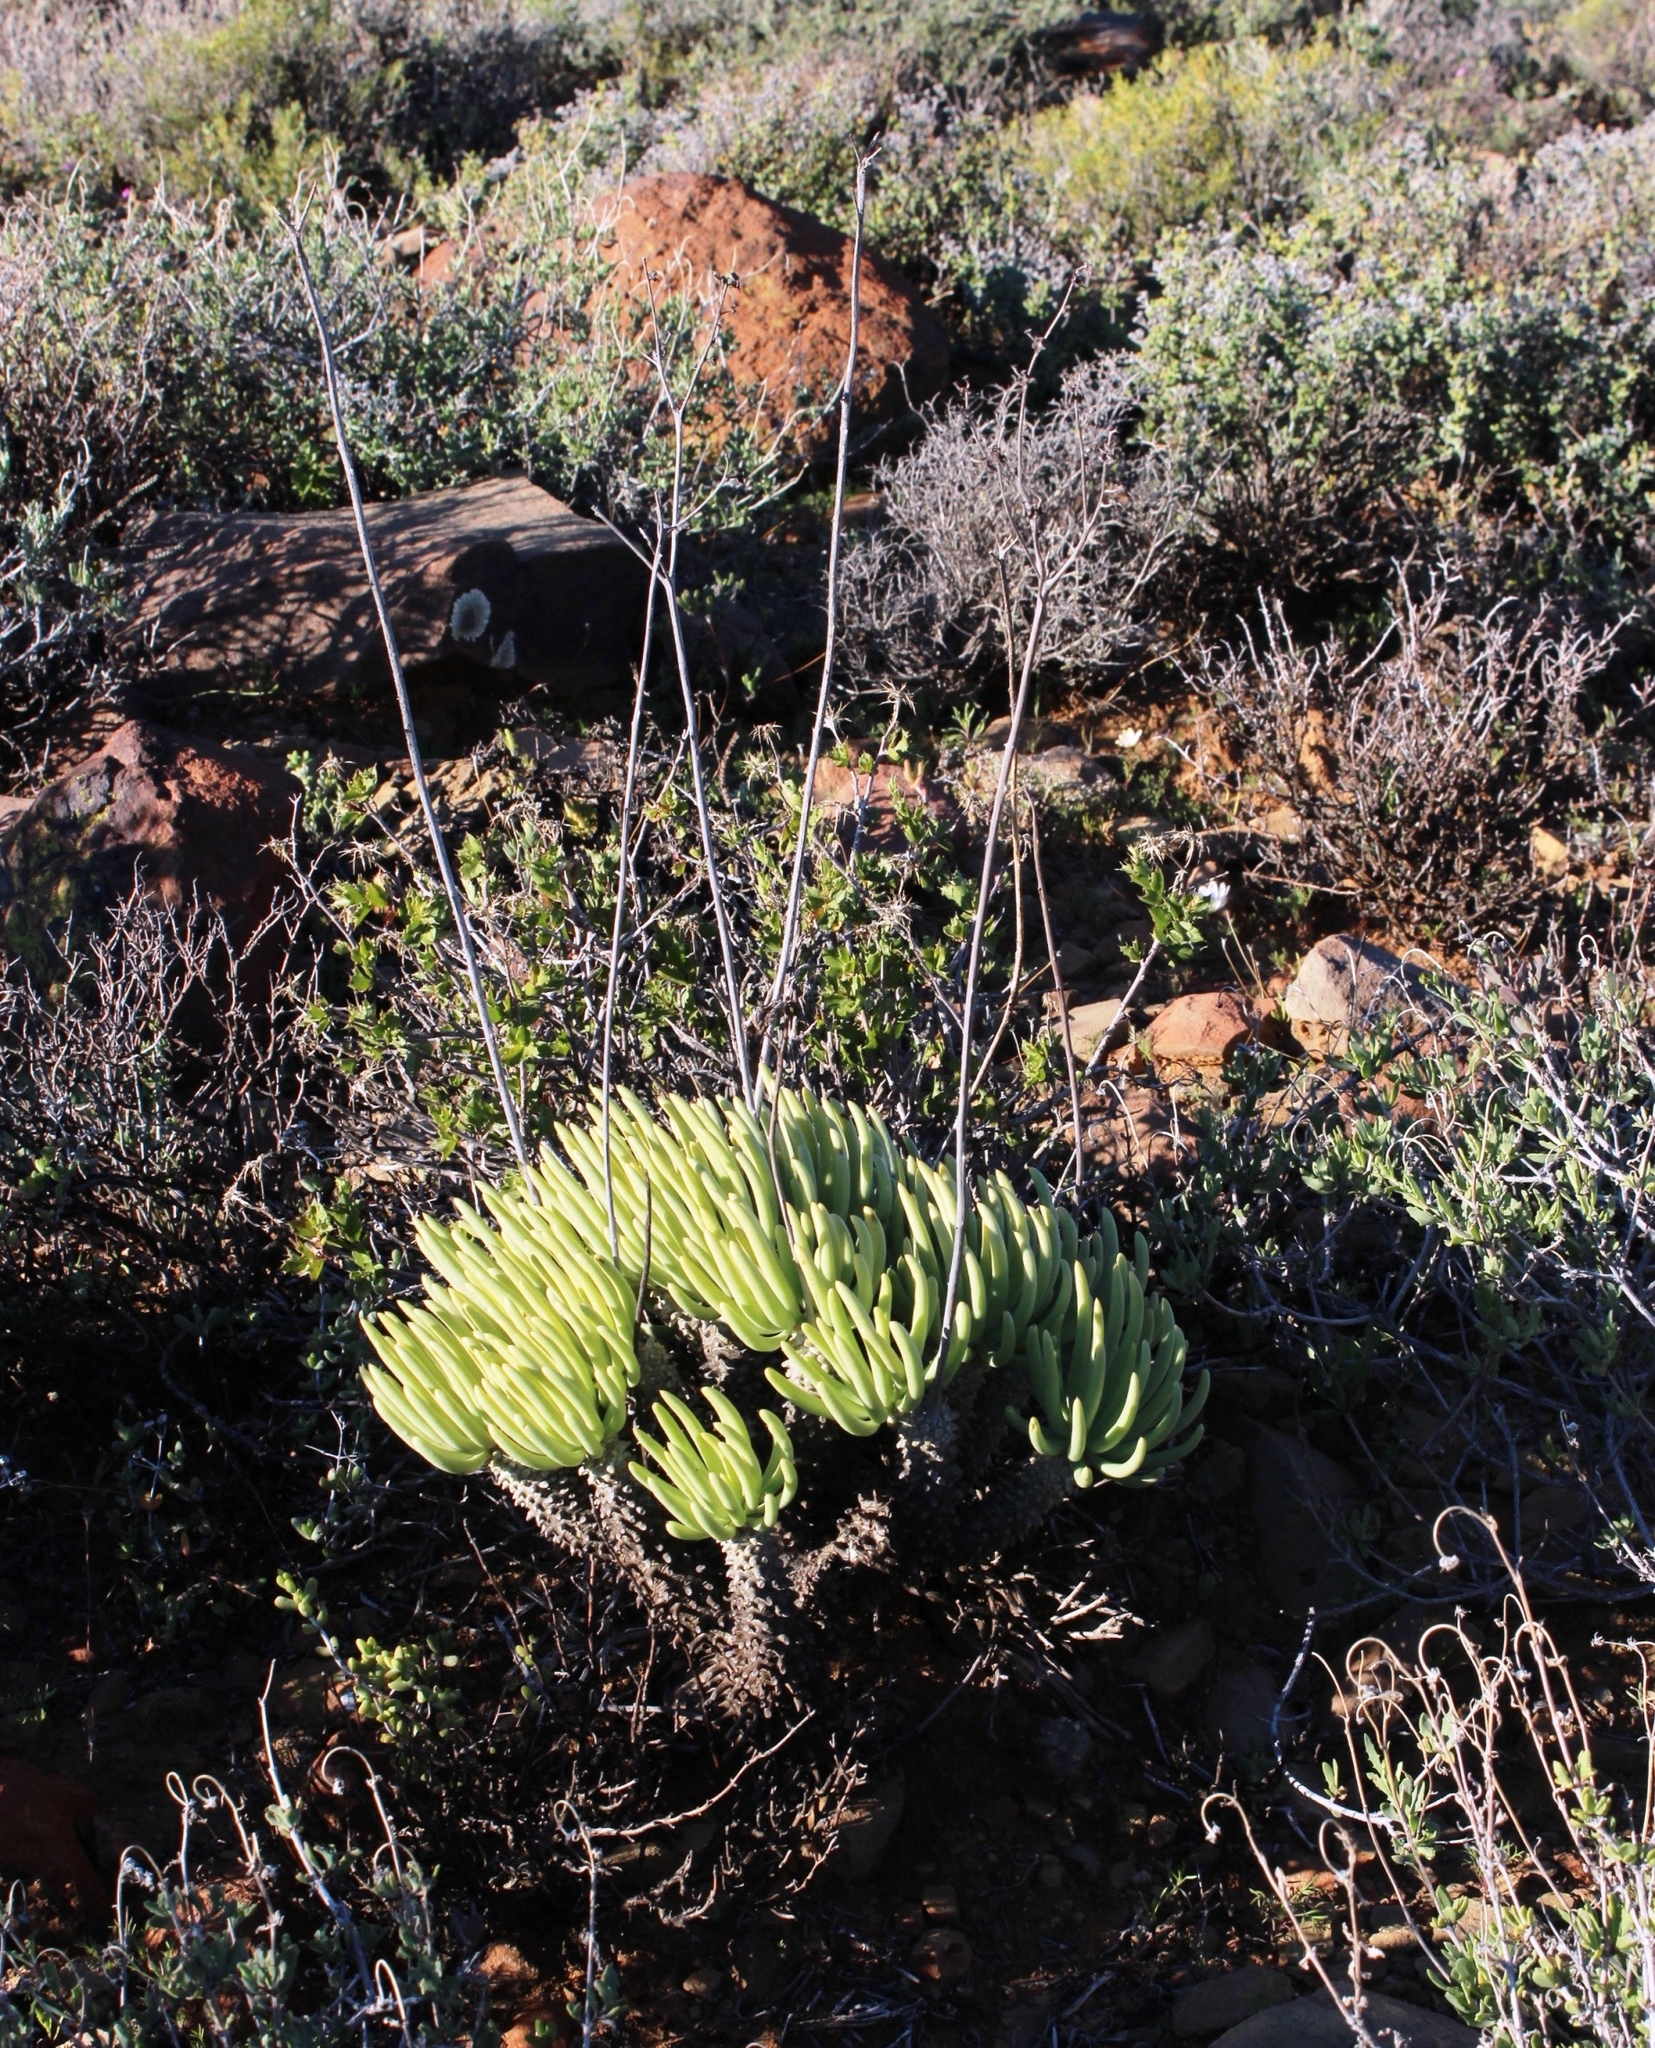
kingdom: Plantae
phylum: Tracheophyta
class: Magnoliopsida
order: Saxifragales
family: Crassulaceae
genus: Tylecodon
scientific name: Tylecodon wallichii
